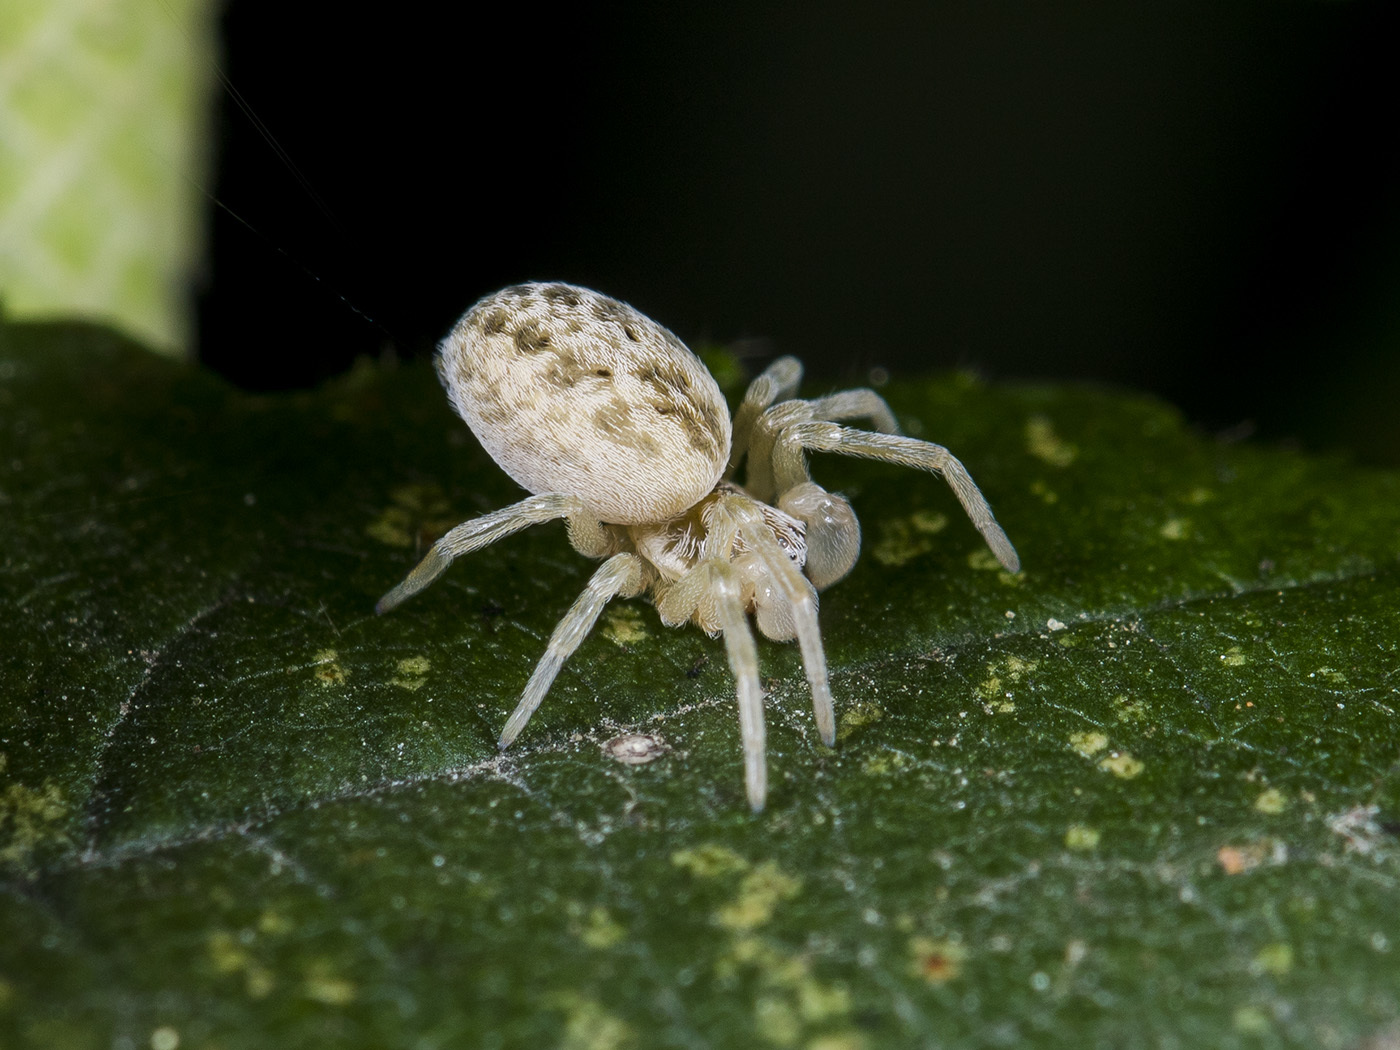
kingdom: Animalia
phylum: Arthropoda
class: Arachnida
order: Araneae
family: Dictynidae
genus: Dictynomorpha
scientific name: Dictynomorpha strandi
